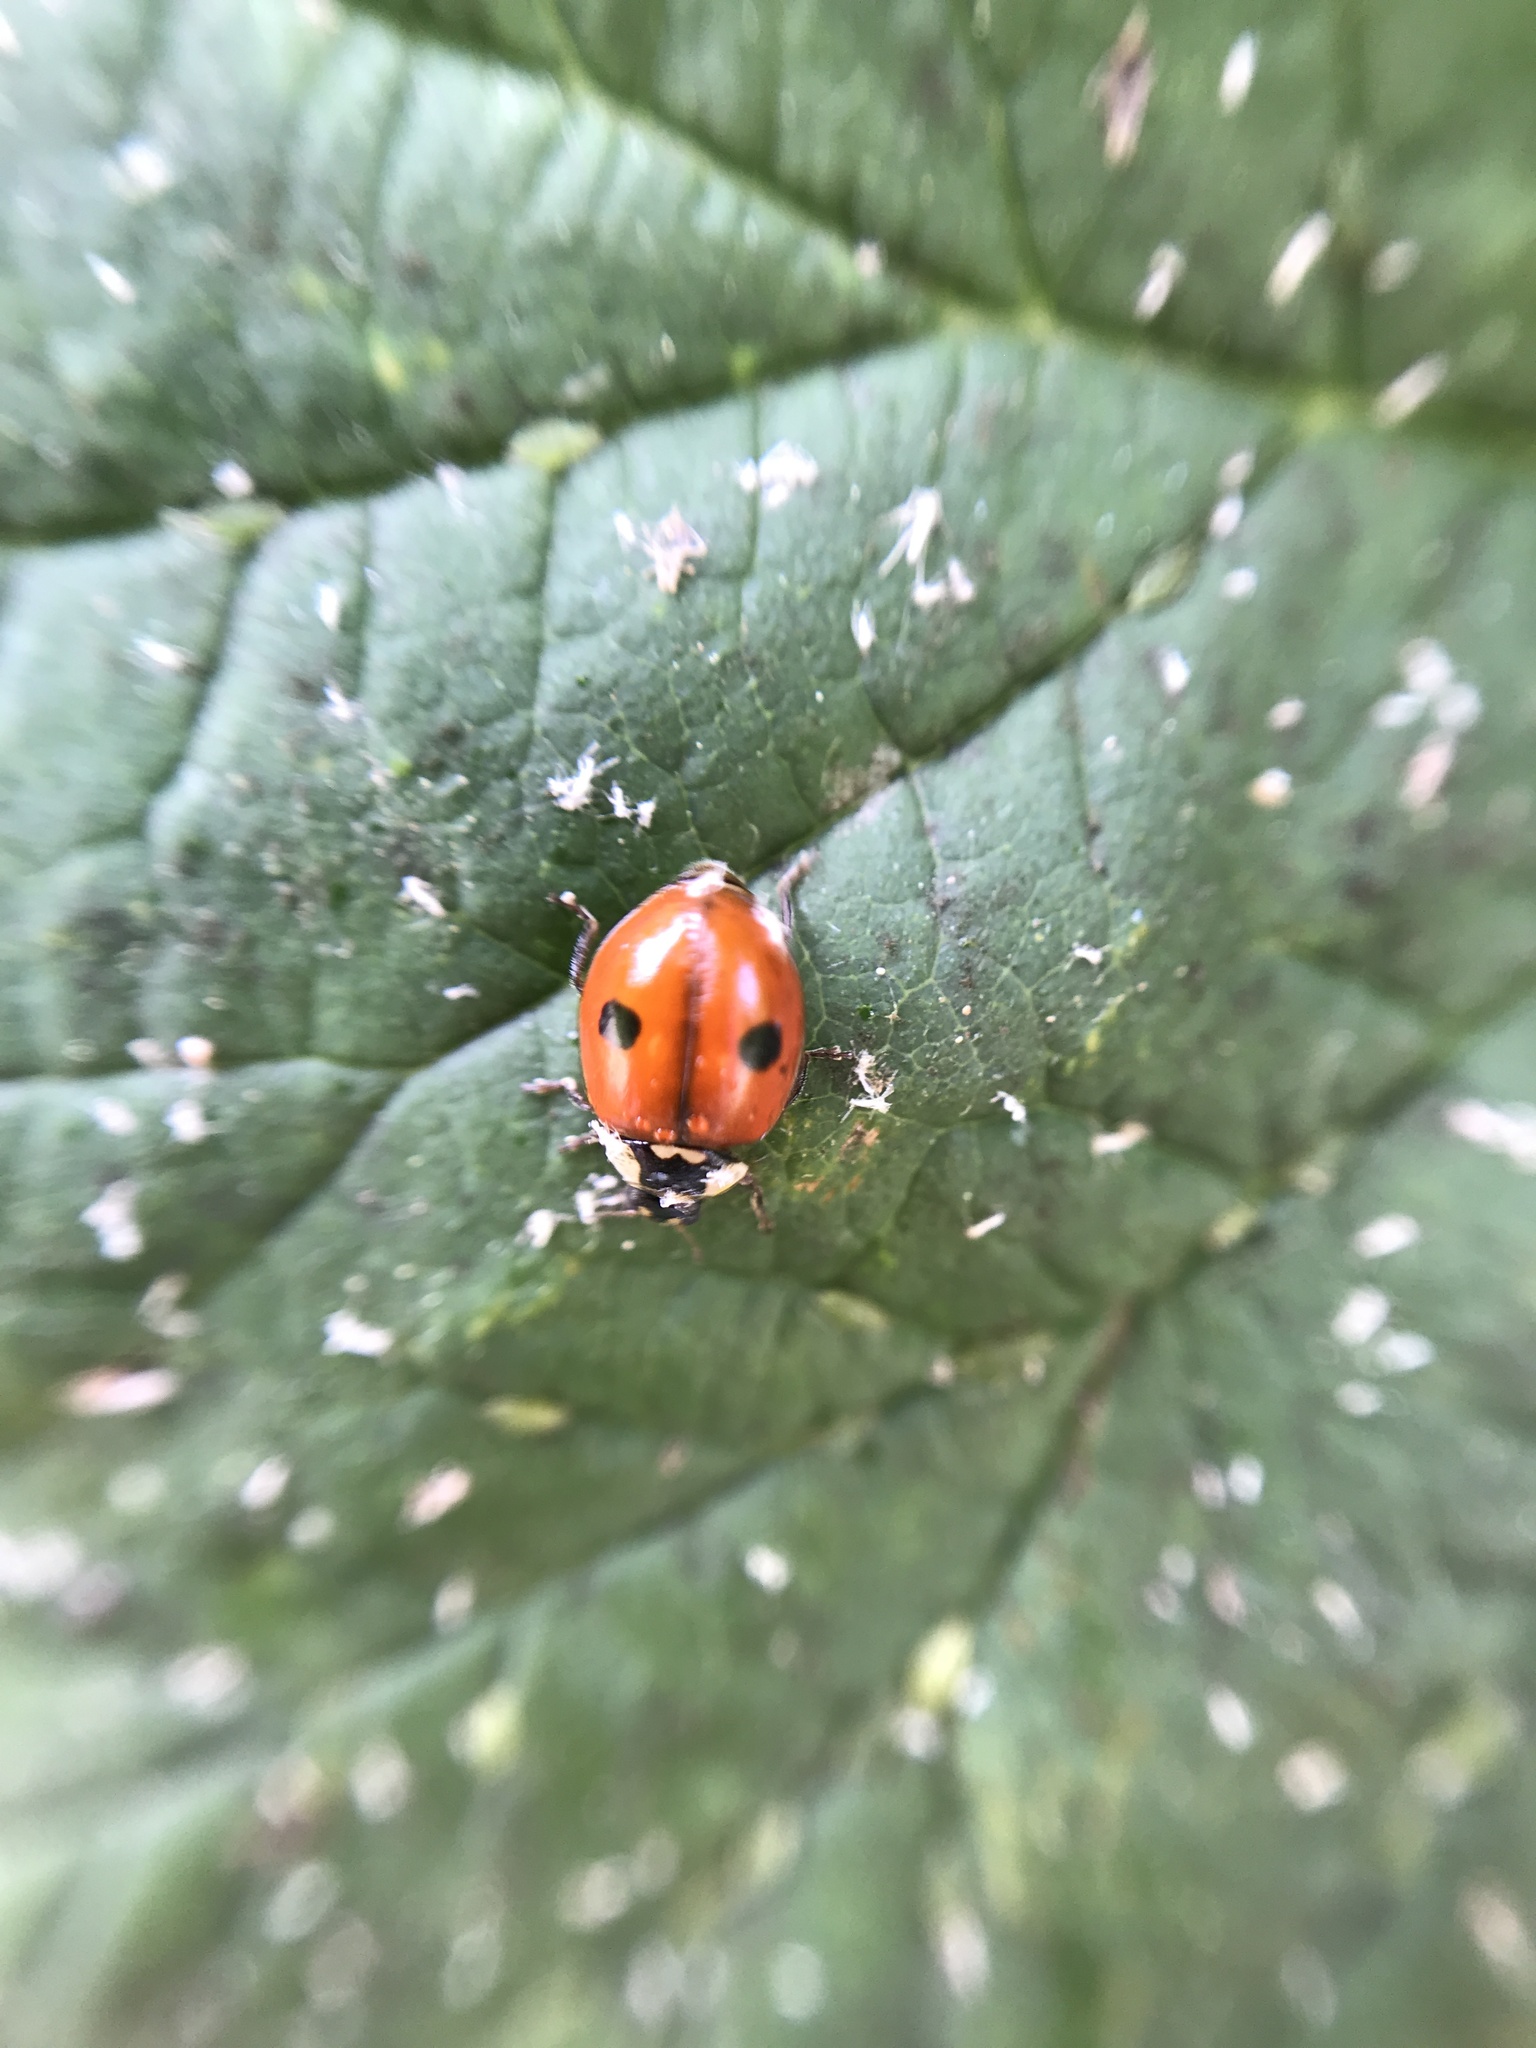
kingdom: Animalia
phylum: Arthropoda
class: Insecta
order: Coleoptera
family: Coccinellidae
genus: Adalia
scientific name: Adalia bipunctata
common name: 2-spot ladybird
